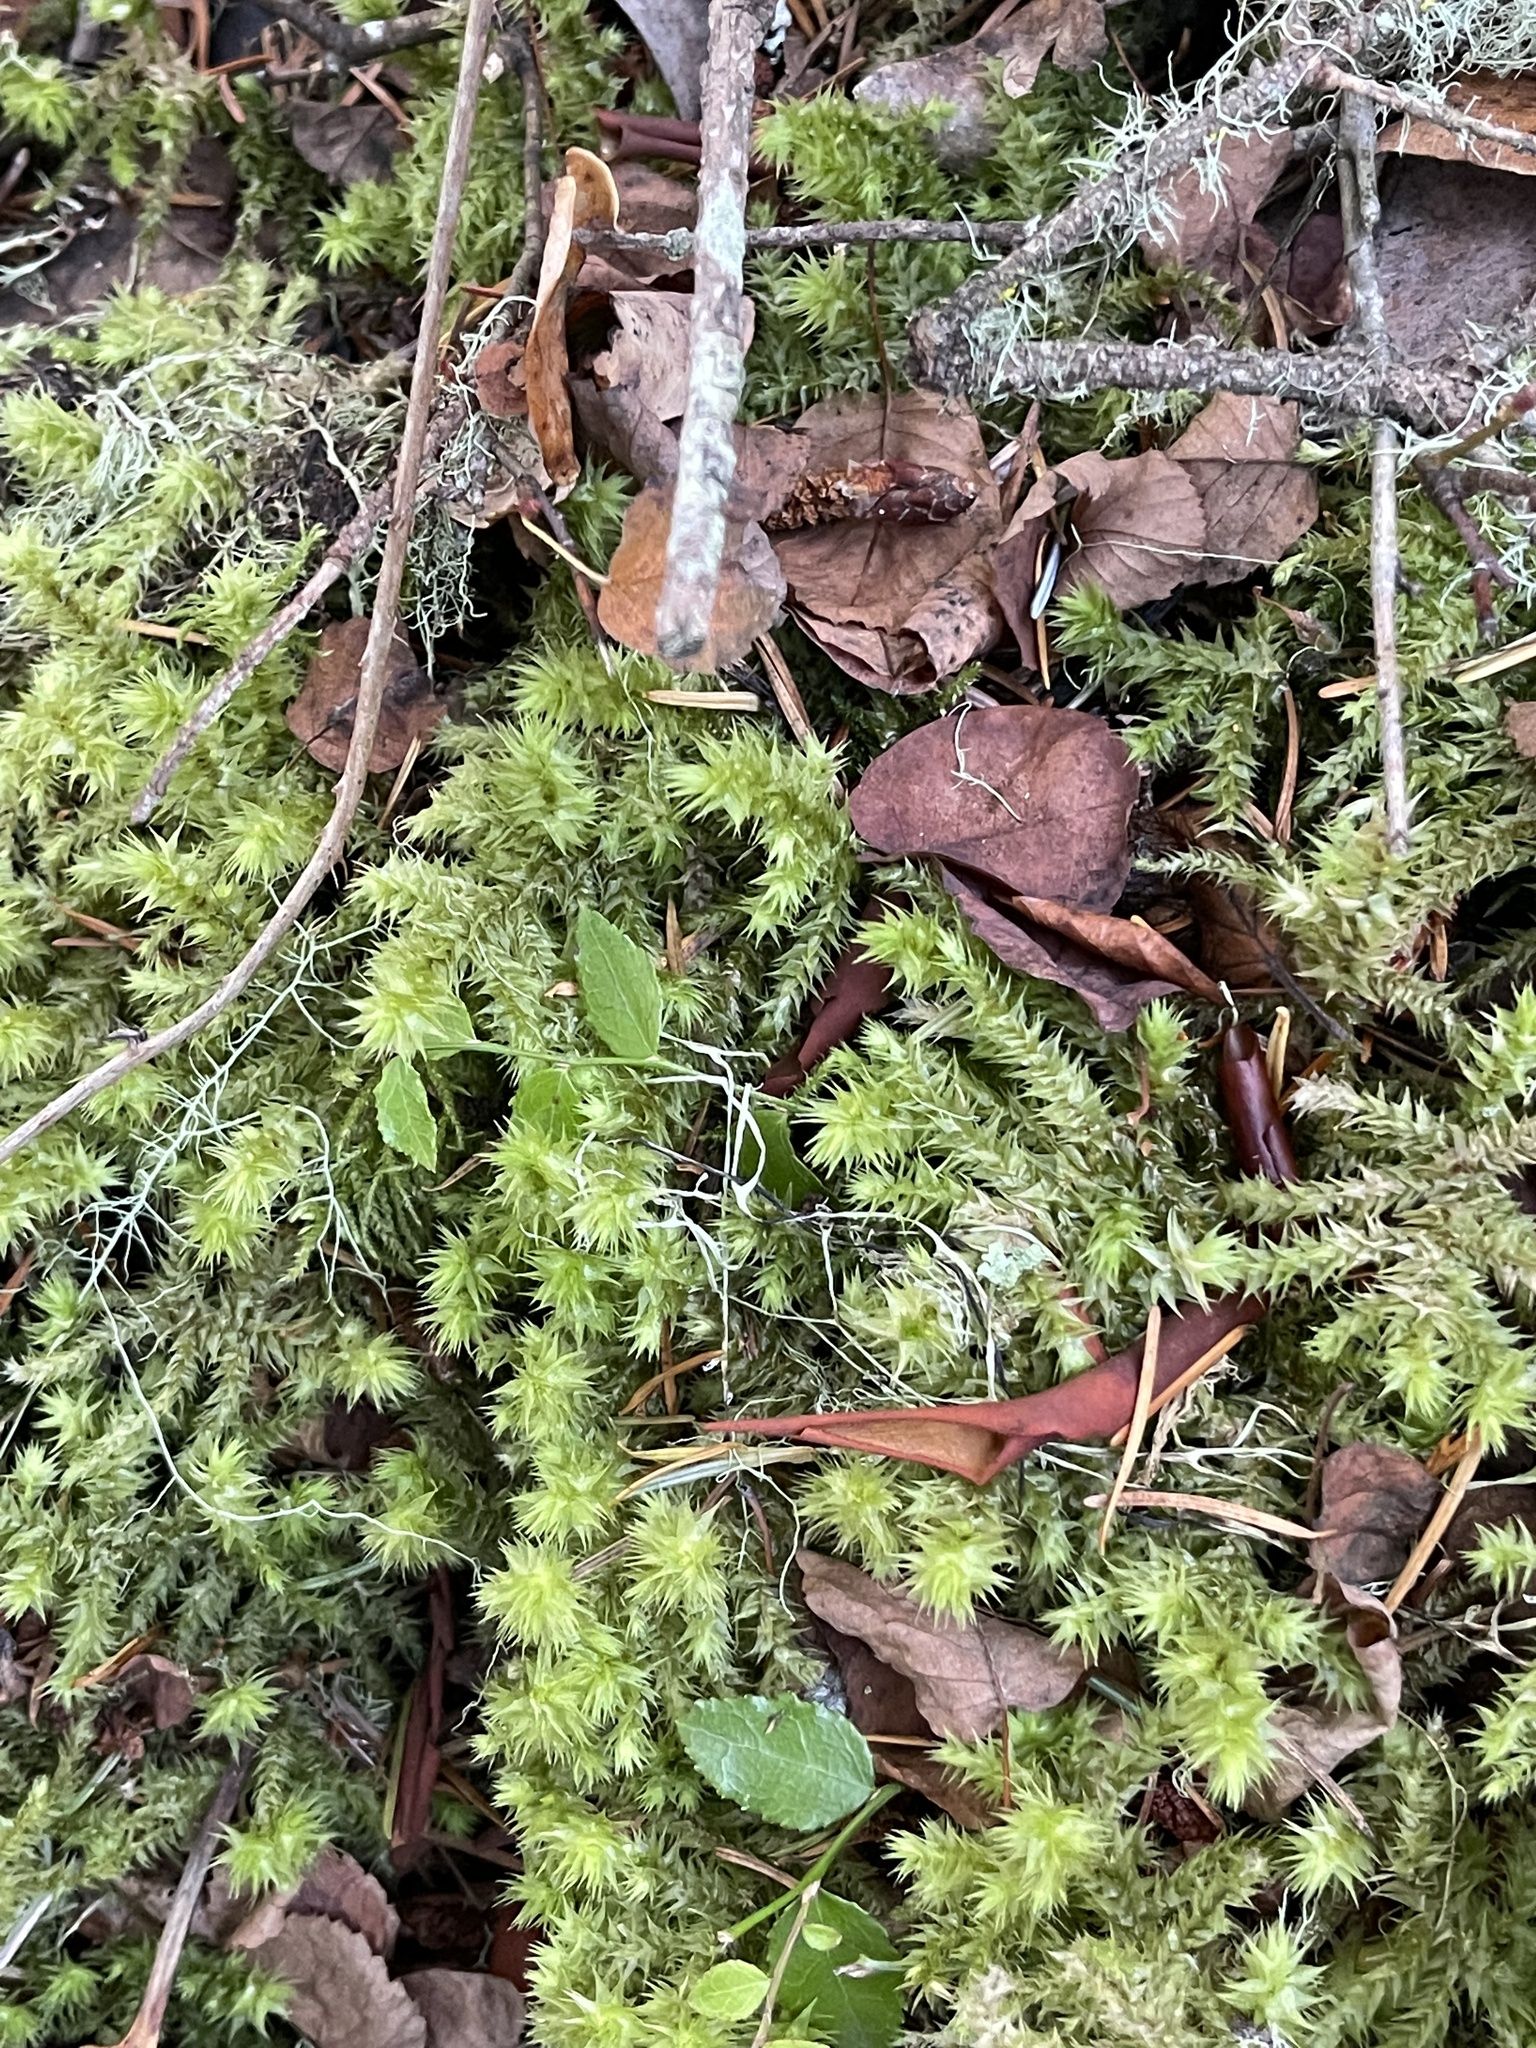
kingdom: Plantae
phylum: Bryophyta
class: Bryopsida
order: Hypnales
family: Hylocomiaceae
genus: Hylocomiadelphus
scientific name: Hylocomiadelphus triquetrus
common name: Rough goose neck moss
